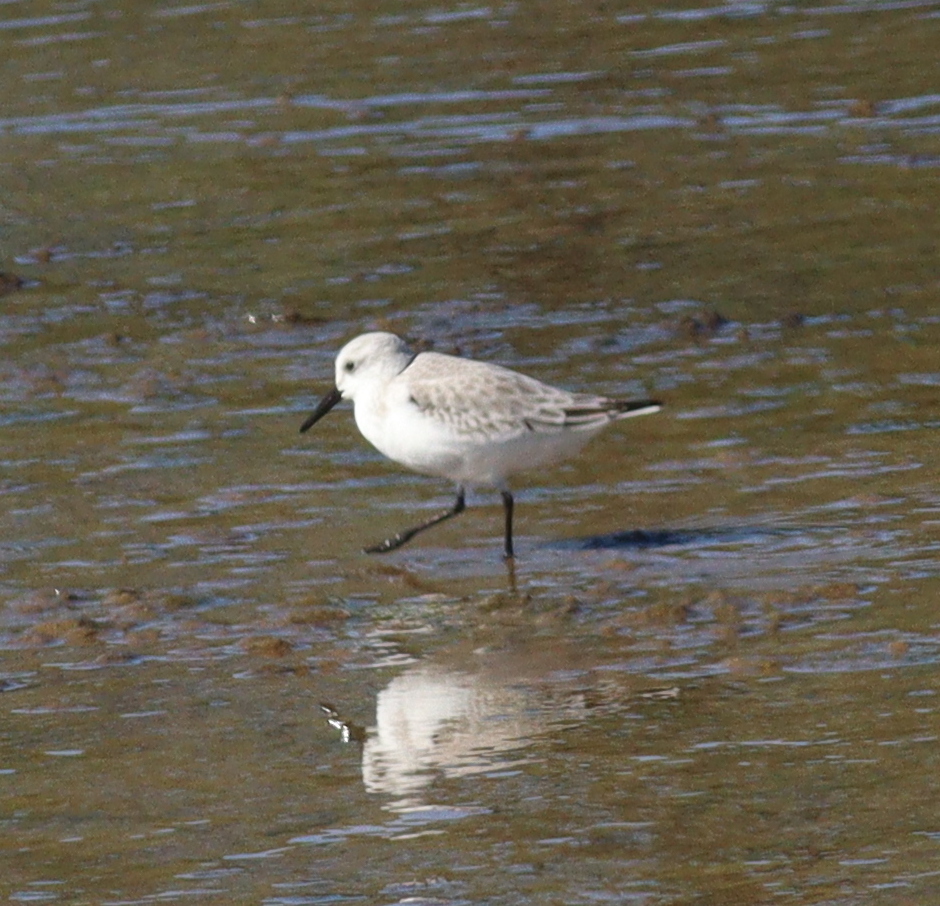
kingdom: Animalia
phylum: Chordata
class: Aves
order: Charadriiformes
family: Scolopacidae
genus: Calidris
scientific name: Calidris alba
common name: Sanderling
